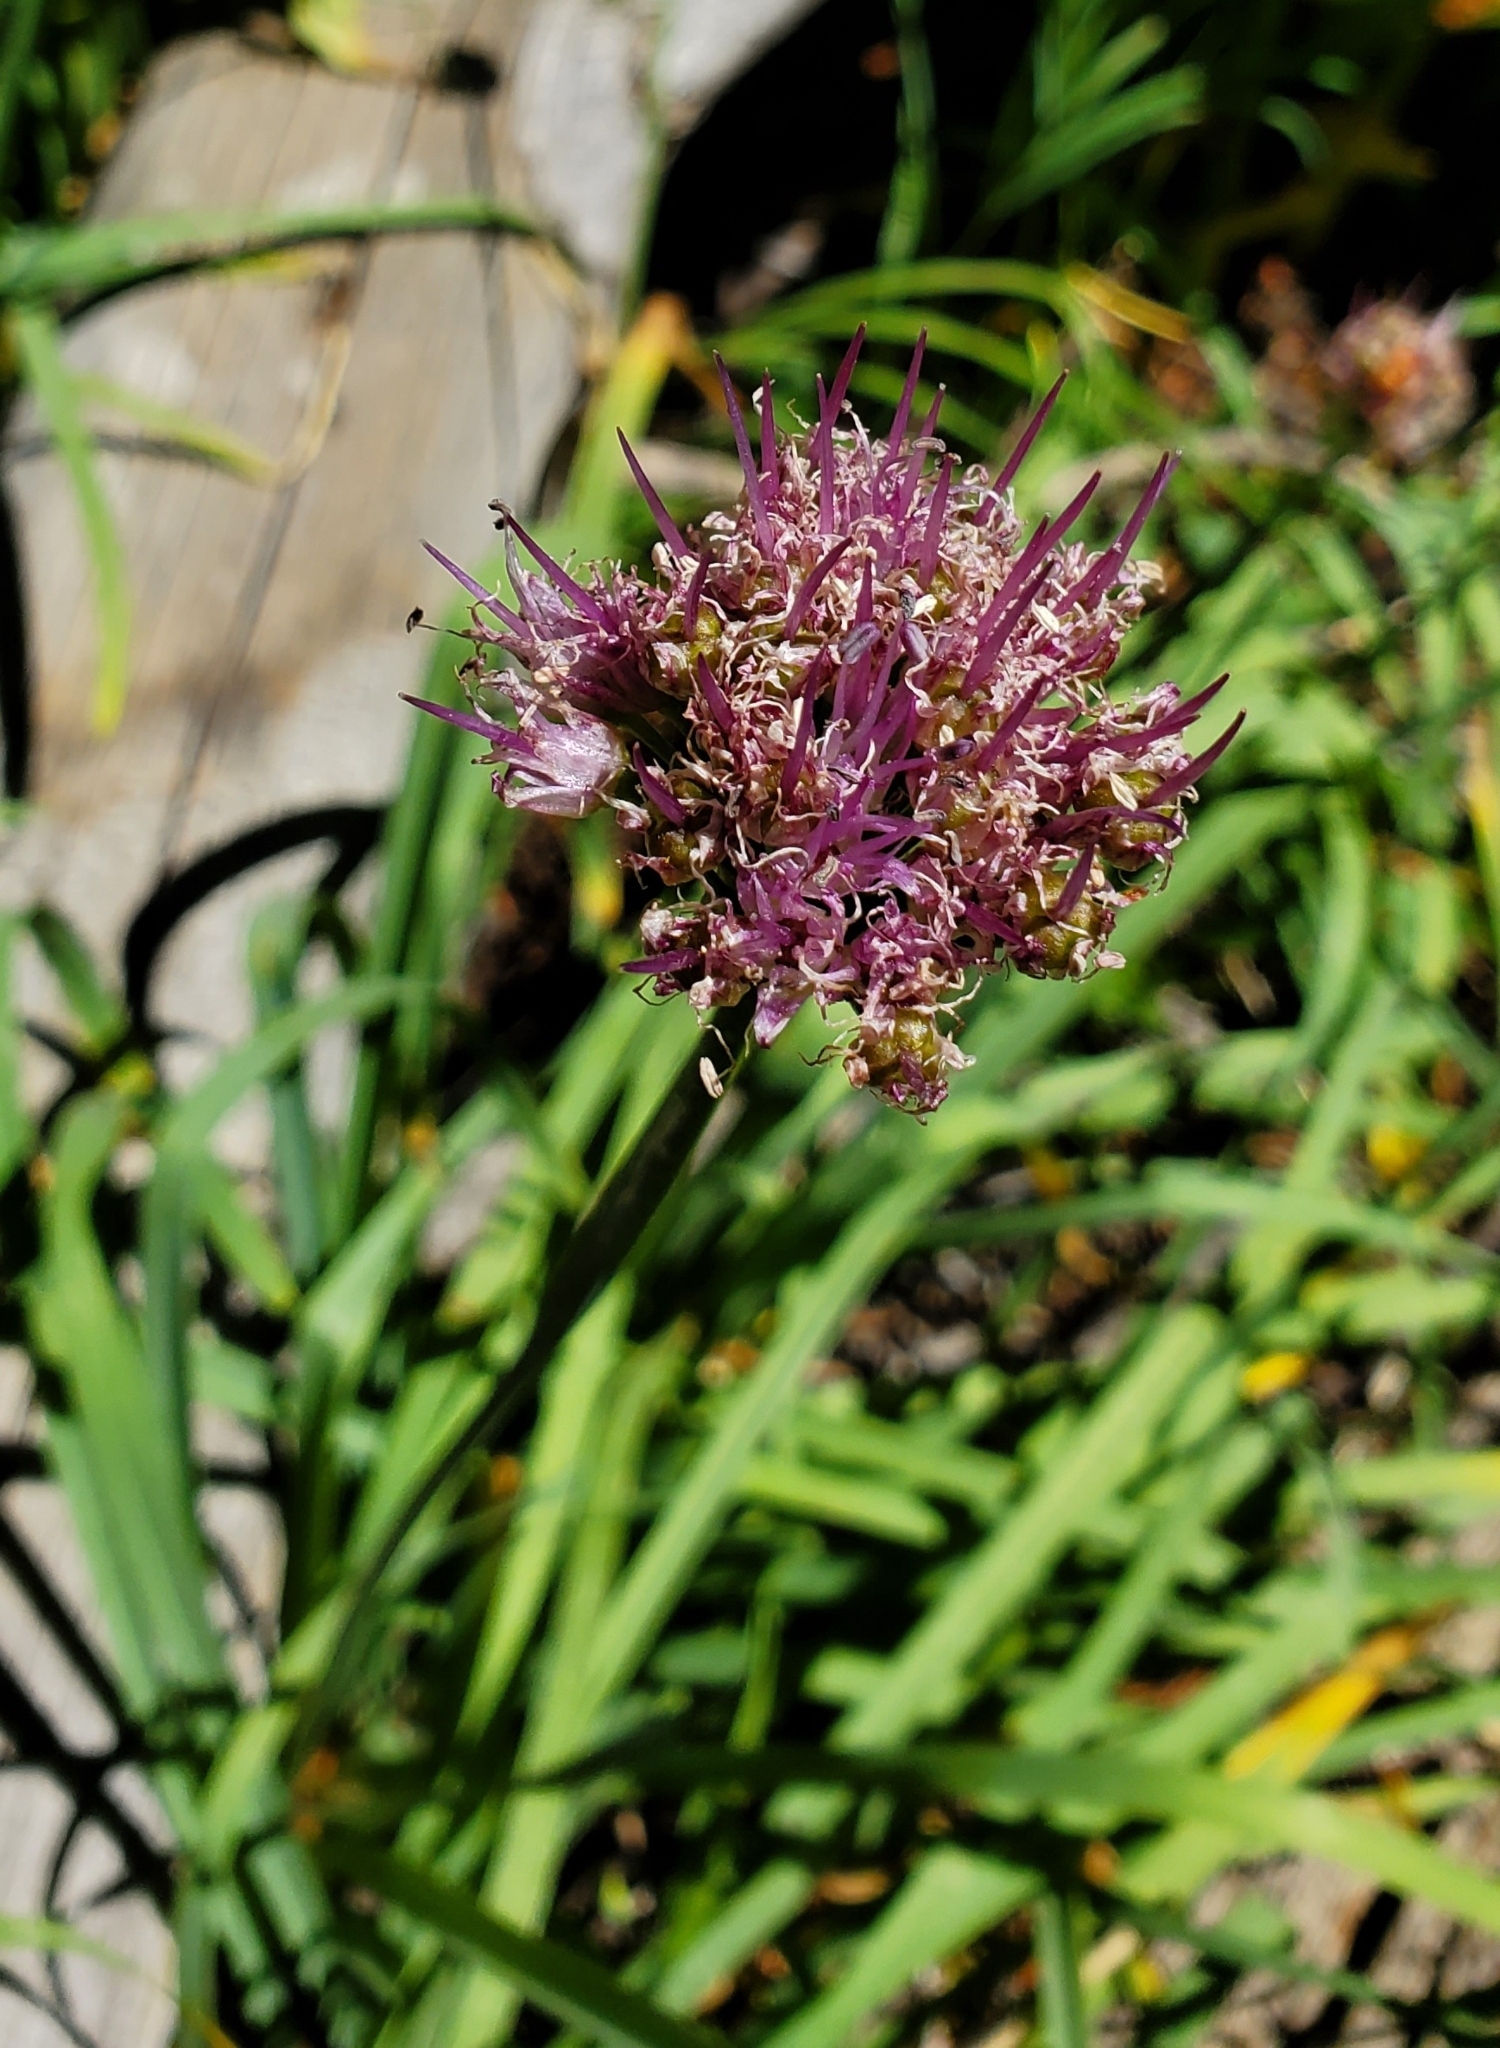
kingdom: Plantae
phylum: Tracheophyta
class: Liliopsida
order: Asparagales
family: Amaryllidaceae
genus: Allium
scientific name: Allium validum
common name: Pacific mountain onion
